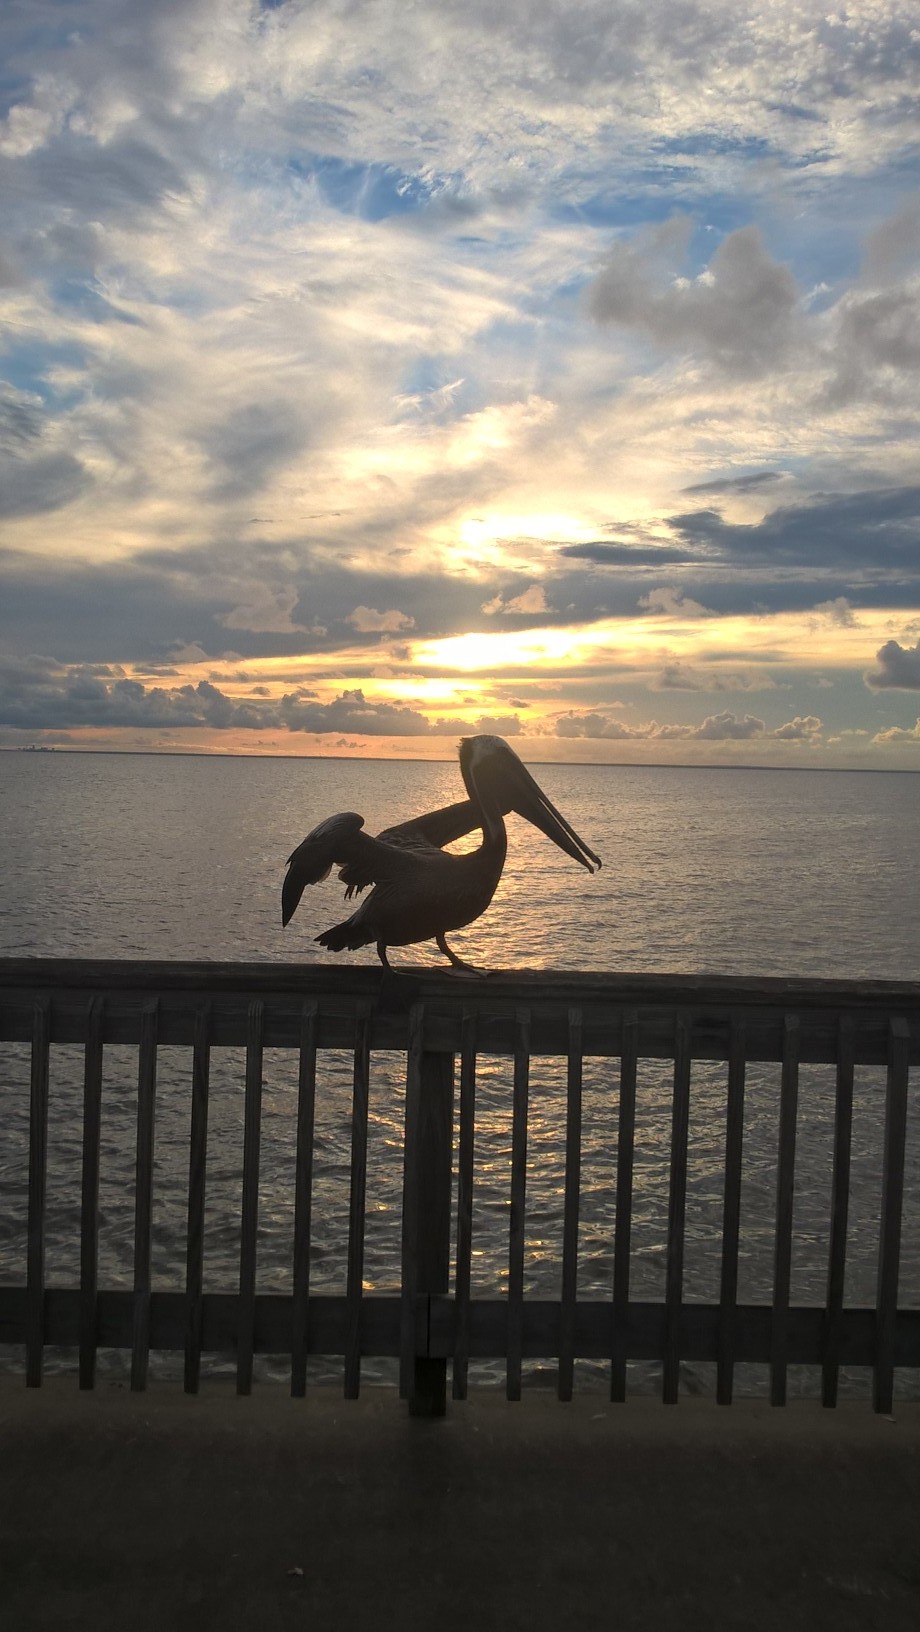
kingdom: Animalia
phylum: Chordata
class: Aves
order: Pelecaniformes
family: Pelecanidae
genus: Pelecanus
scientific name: Pelecanus occidentalis
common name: Brown pelican
